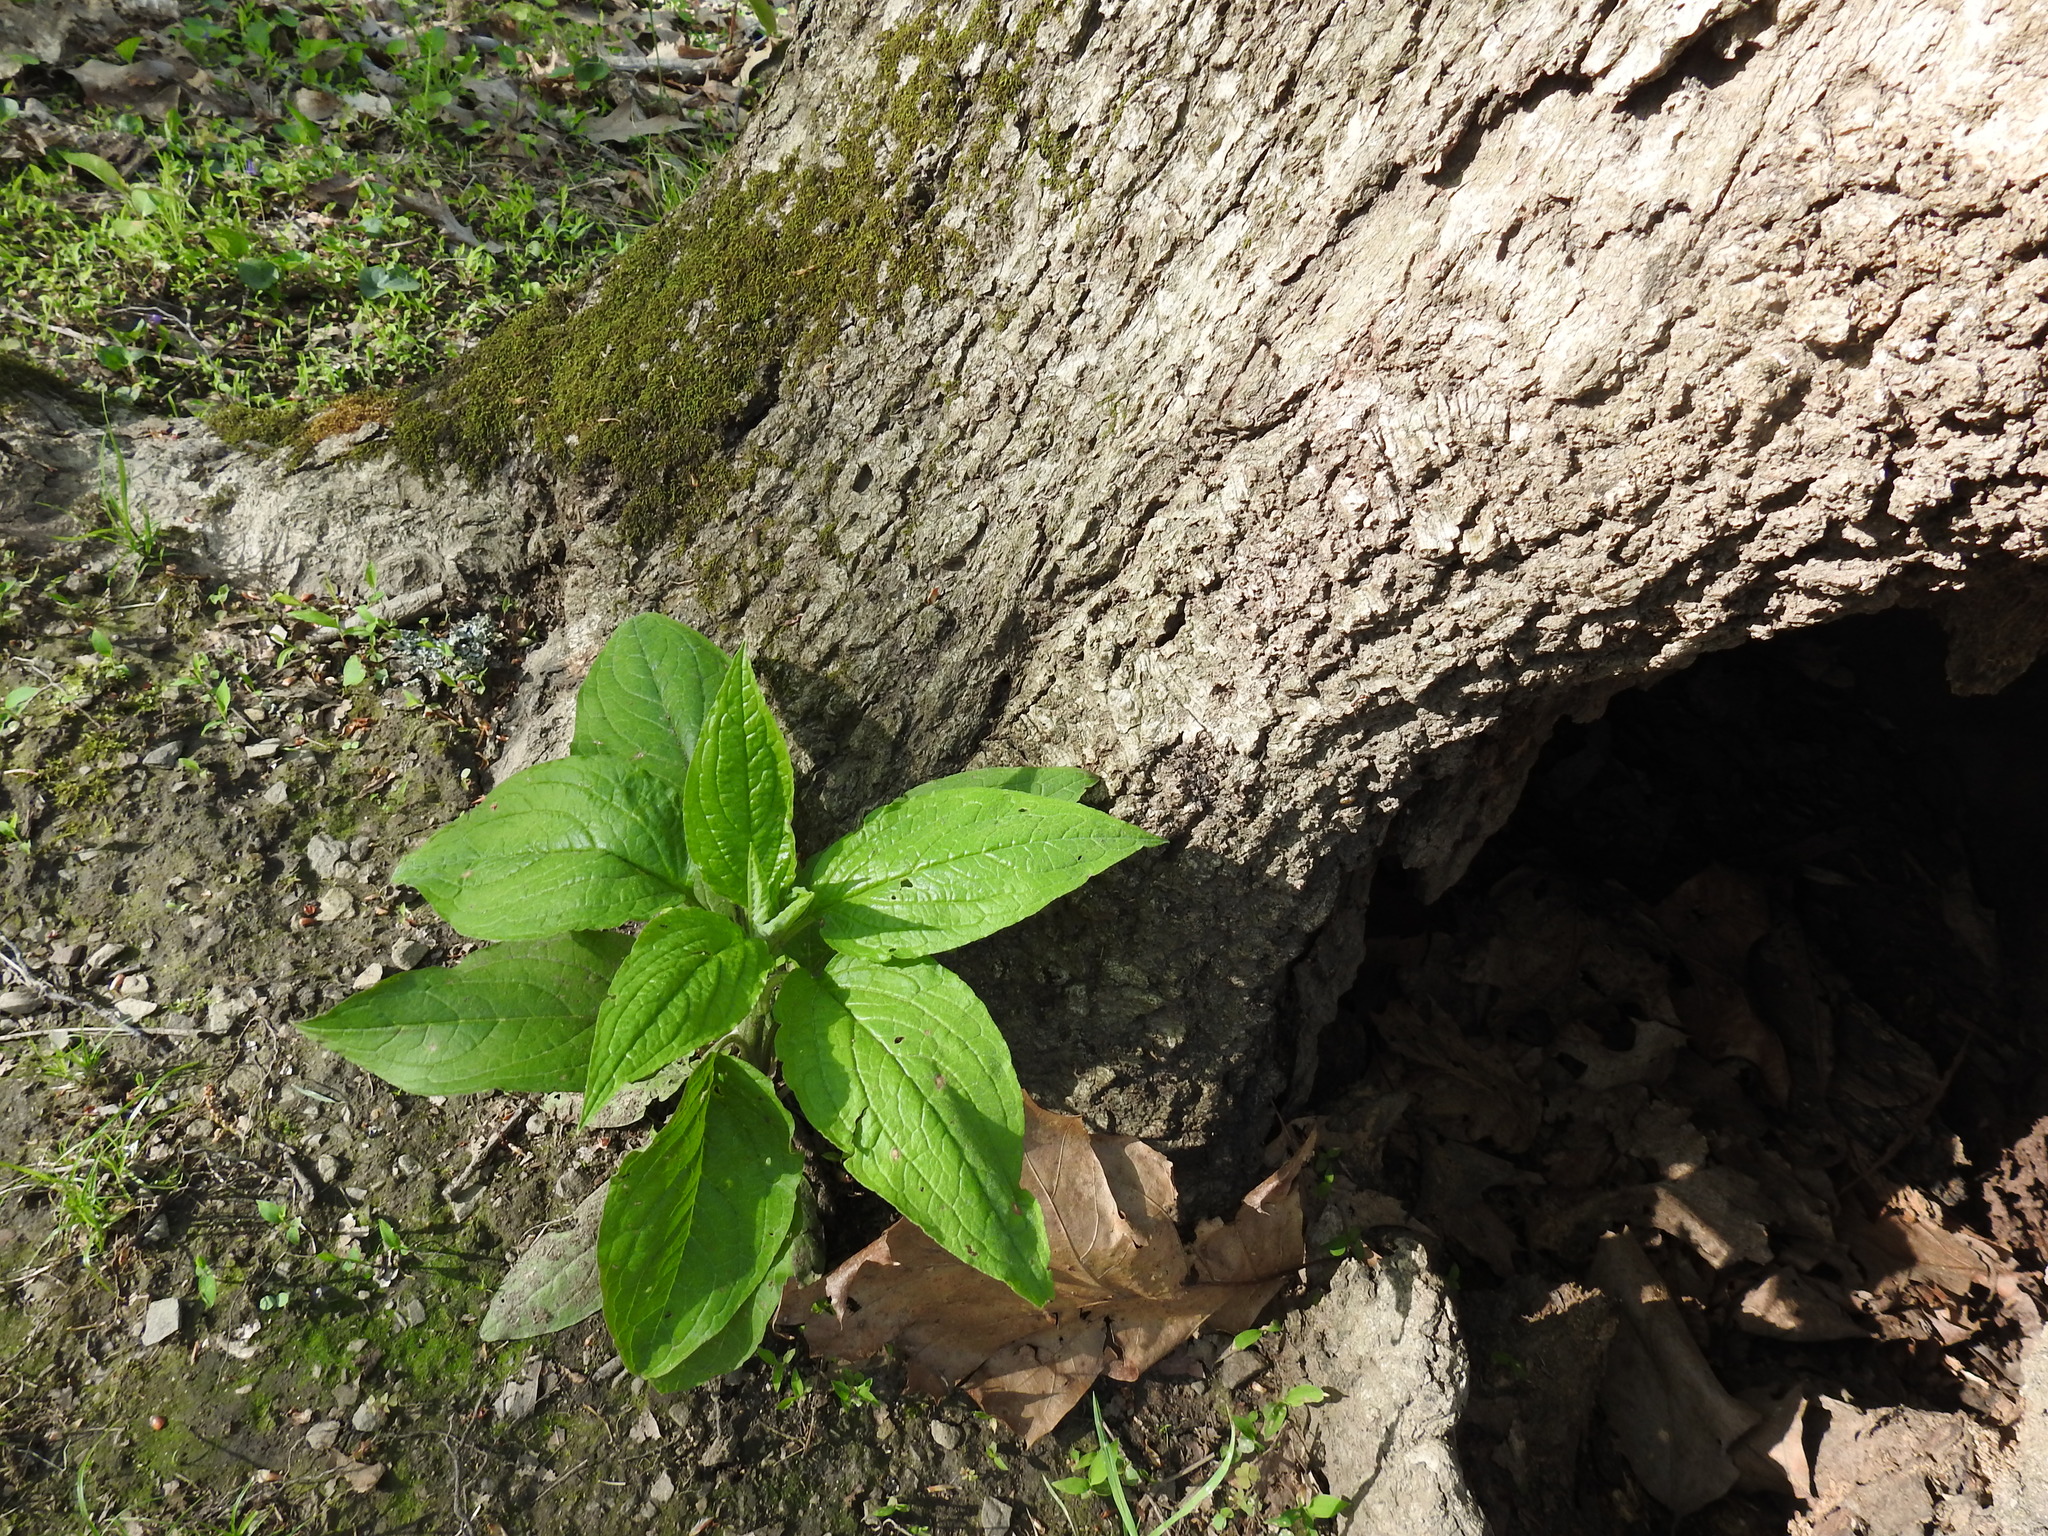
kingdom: Plantae
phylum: Tracheophyta
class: Magnoliopsida
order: Boraginales
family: Boraginaceae
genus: Hackelia
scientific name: Hackelia virginiana
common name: Beggar's-lice
